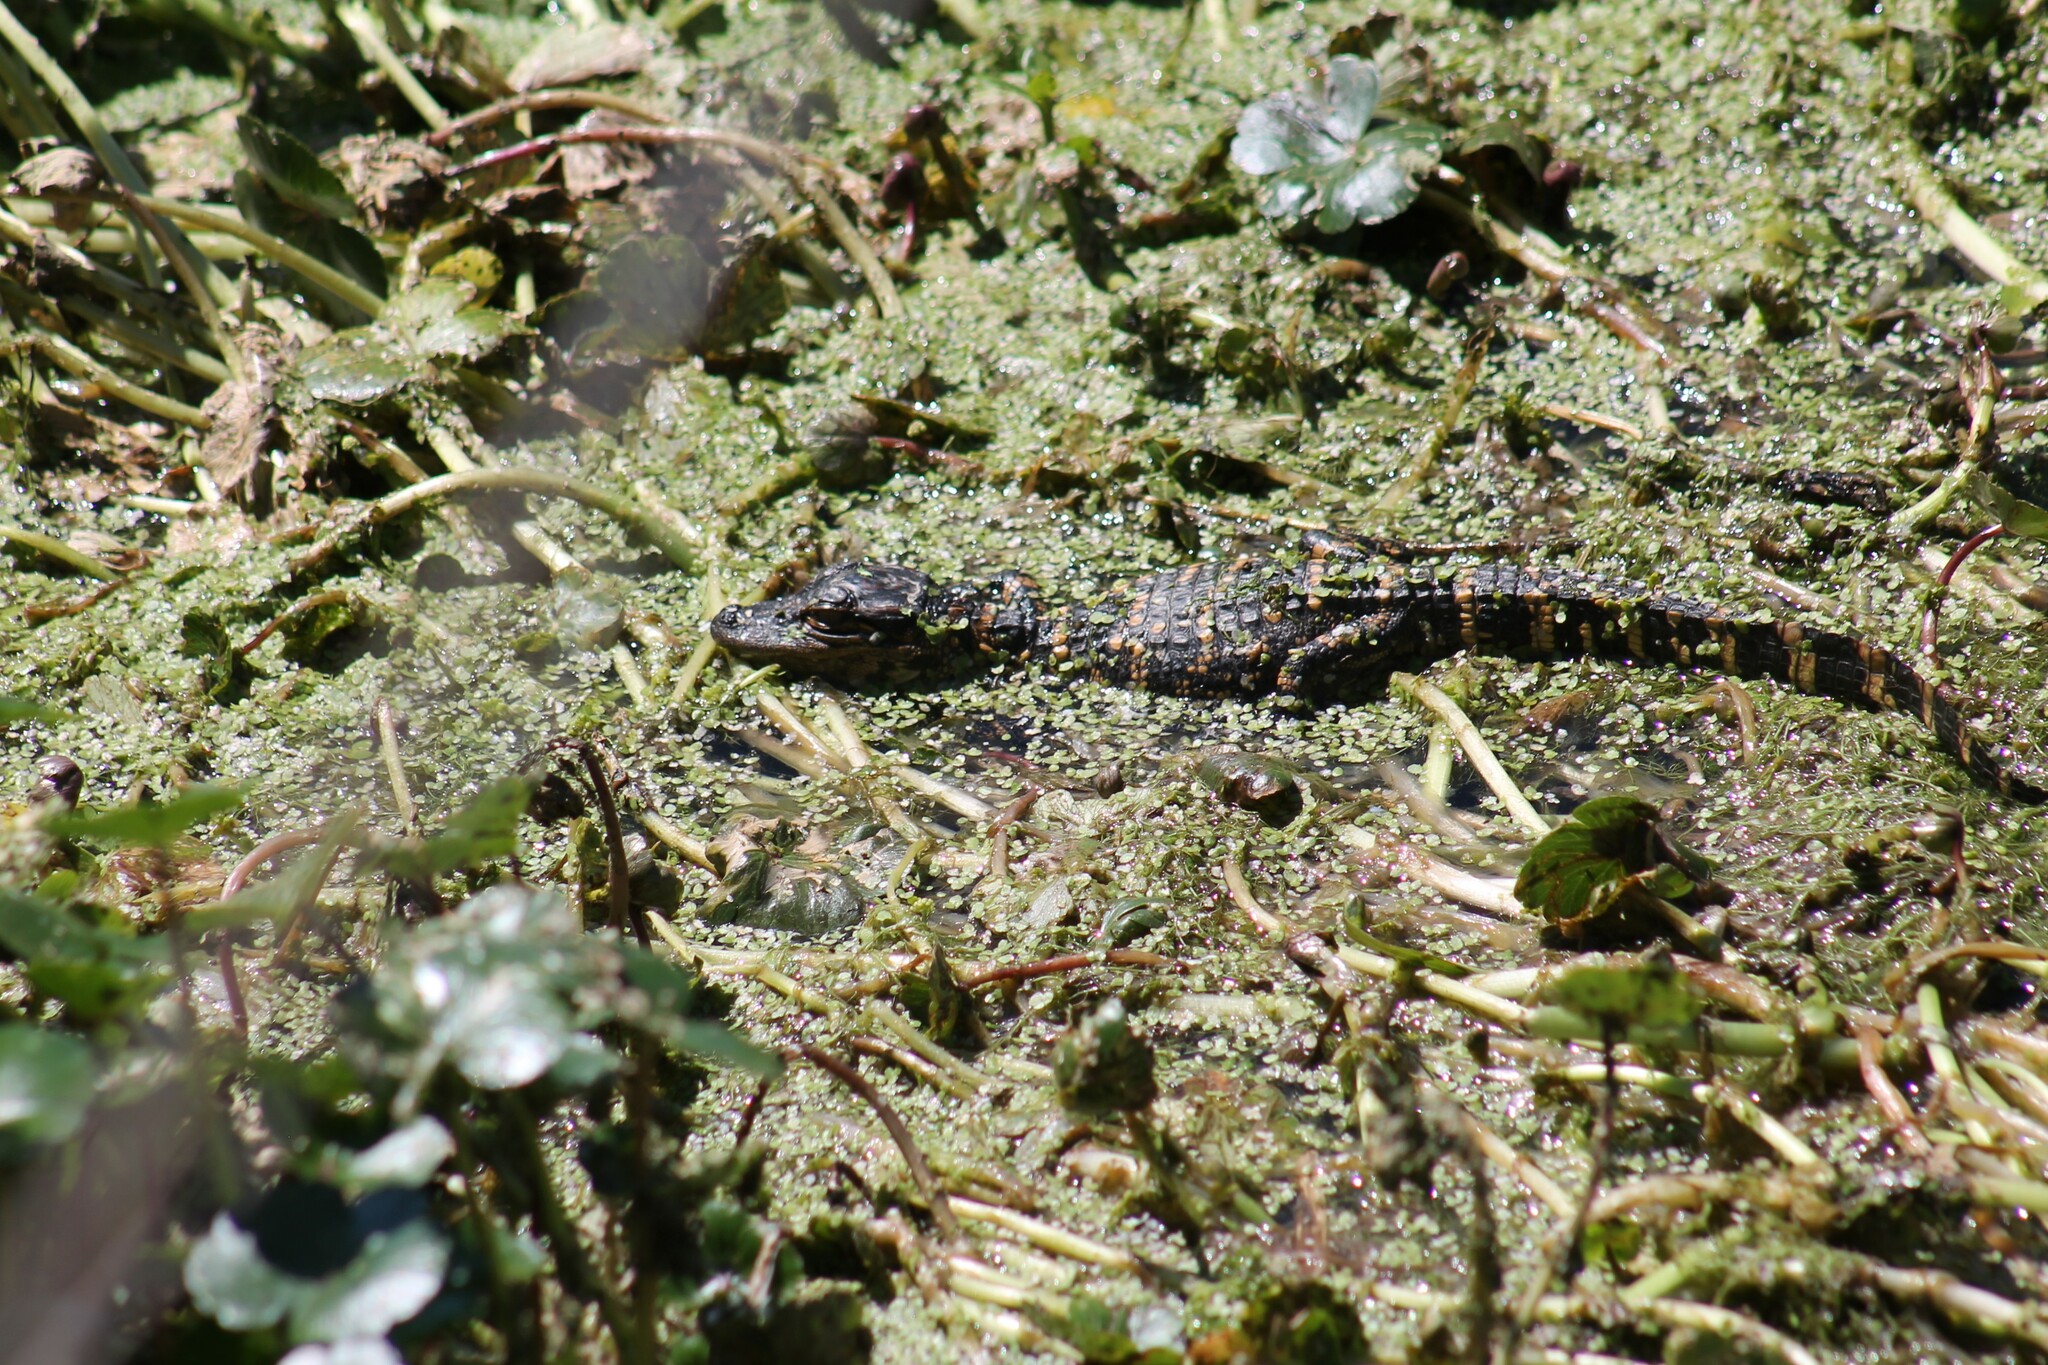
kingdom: Animalia
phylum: Chordata
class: Crocodylia
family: Alligatoridae
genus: Alligator
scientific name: Alligator mississippiensis
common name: American alligator
